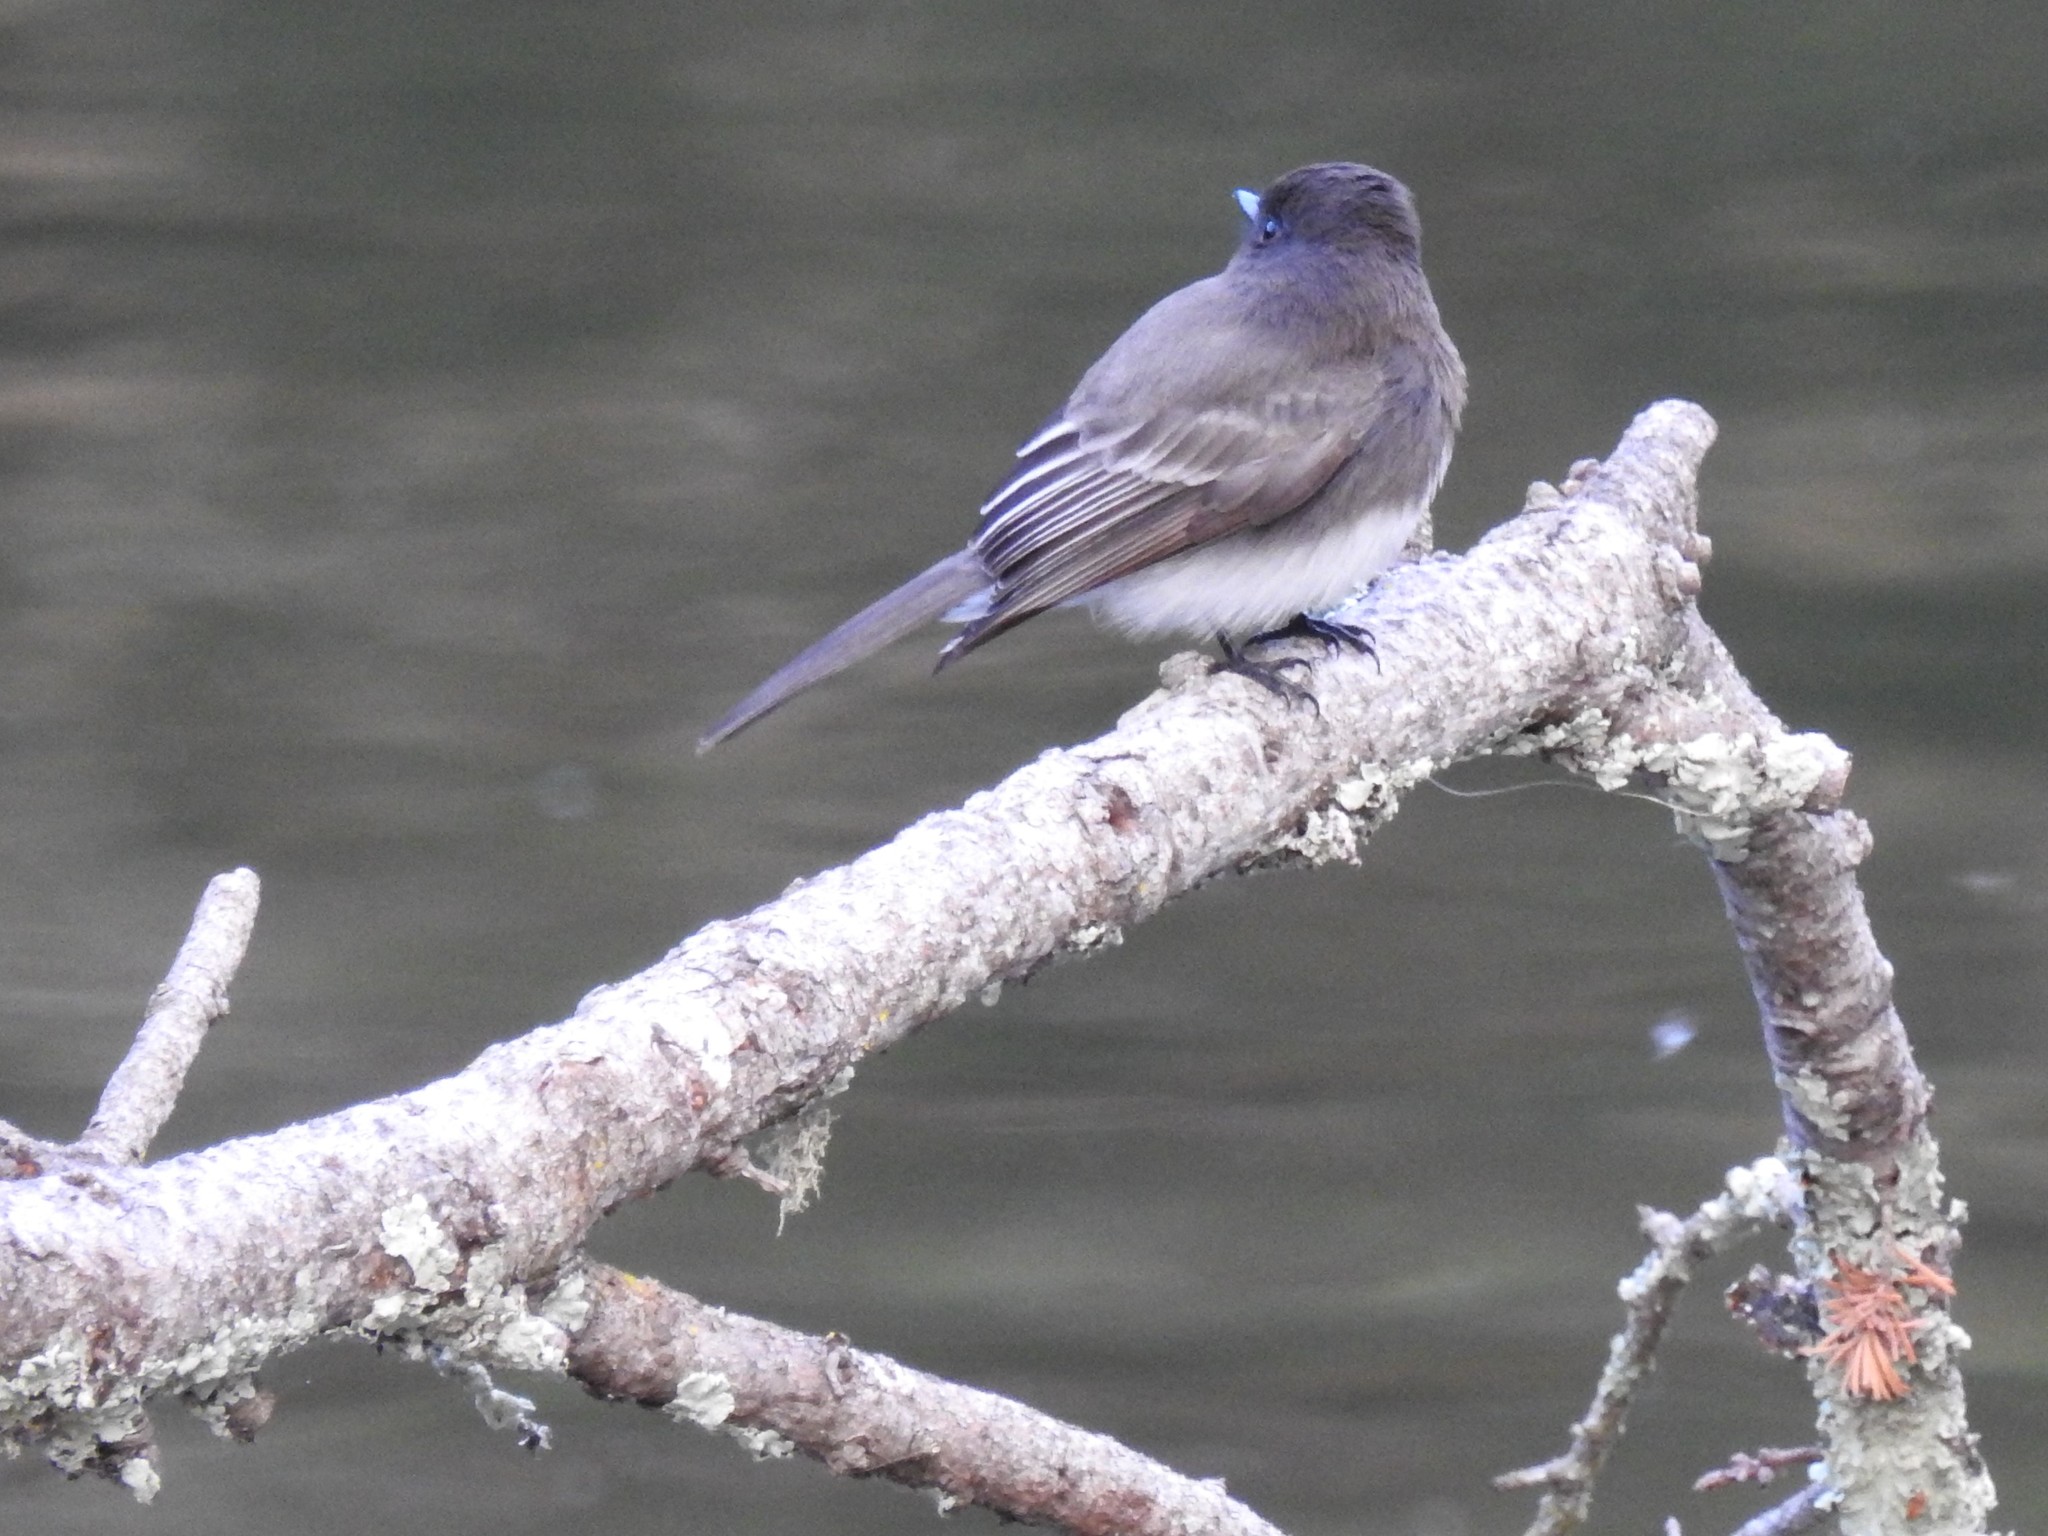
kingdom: Animalia
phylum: Chordata
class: Aves
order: Passeriformes
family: Tyrannidae
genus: Sayornis
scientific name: Sayornis nigricans
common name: Black phoebe
